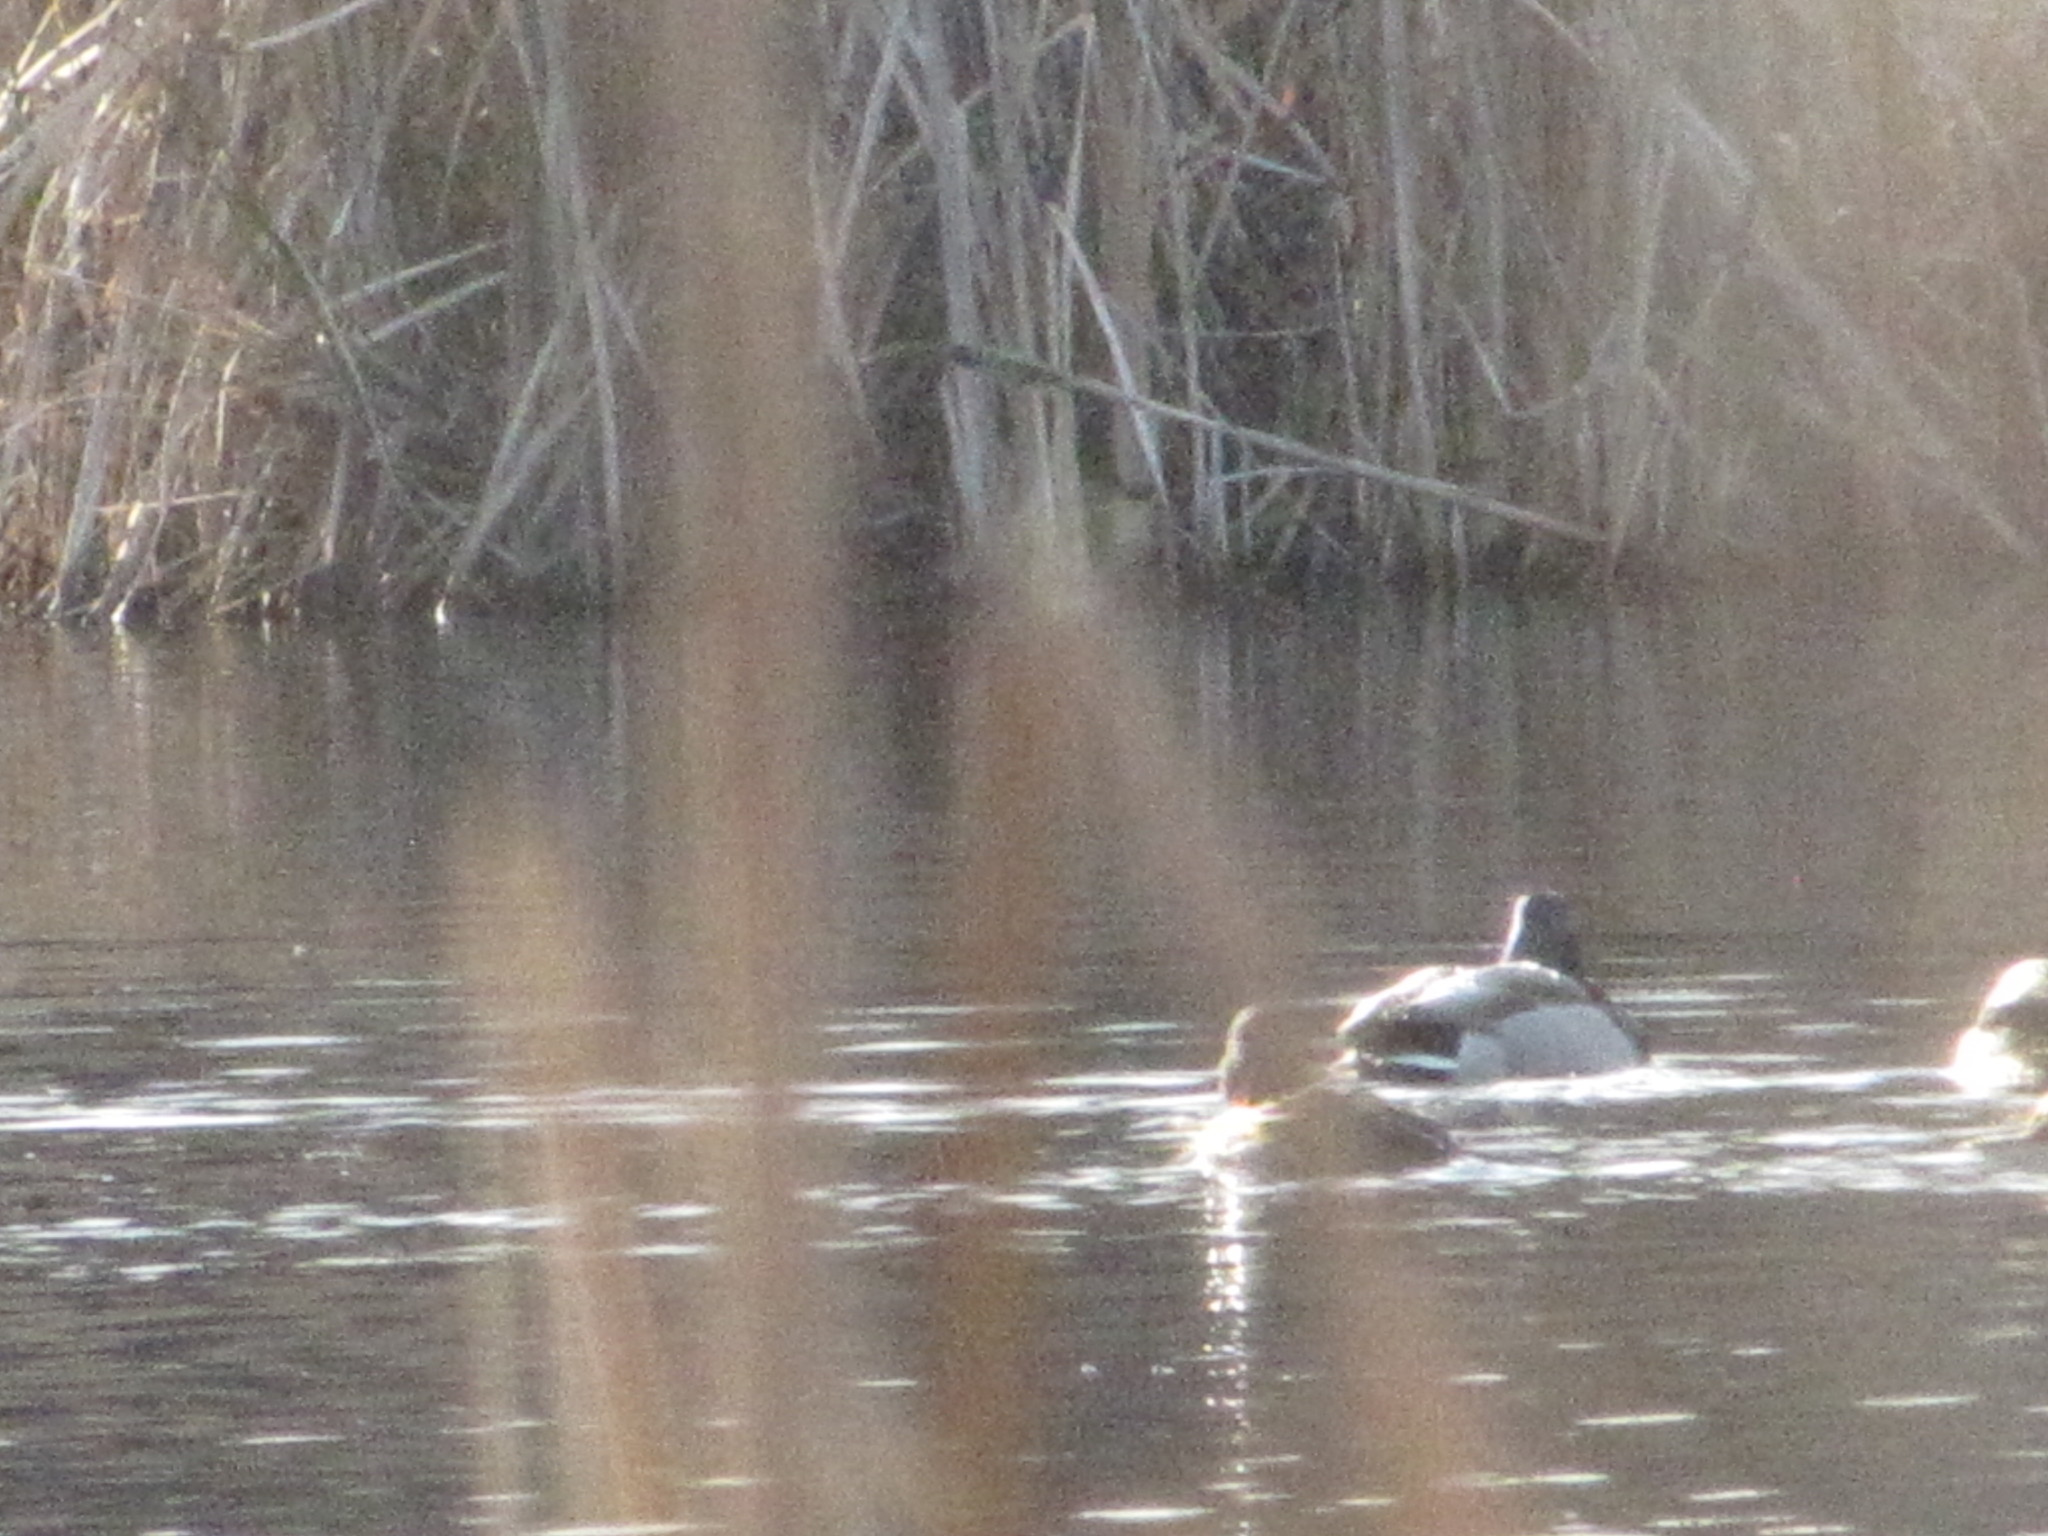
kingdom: Animalia
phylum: Chordata
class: Aves
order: Anseriformes
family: Anatidae
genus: Anas
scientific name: Anas platyrhynchos
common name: Mallard
